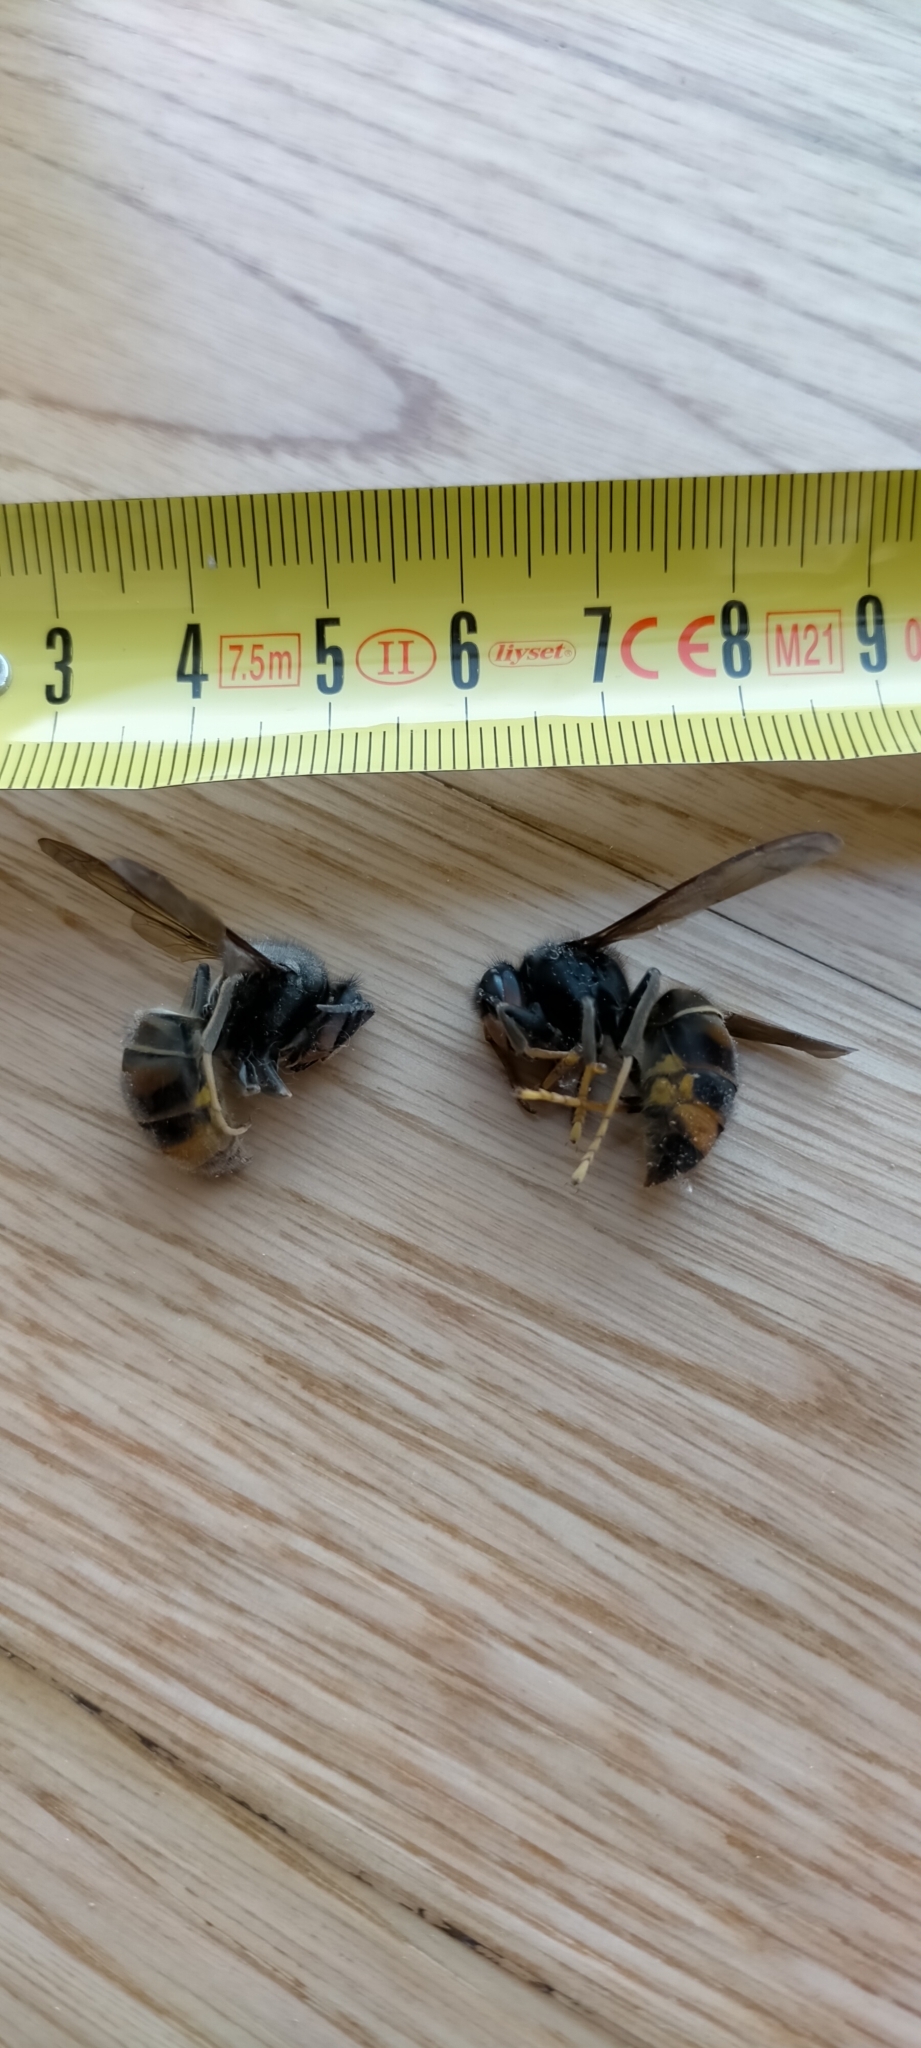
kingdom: Animalia
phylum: Arthropoda
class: Insecta
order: Hymenoptera
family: Vespidae
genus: Vespa
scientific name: Vespa velutina
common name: Asian hornet
